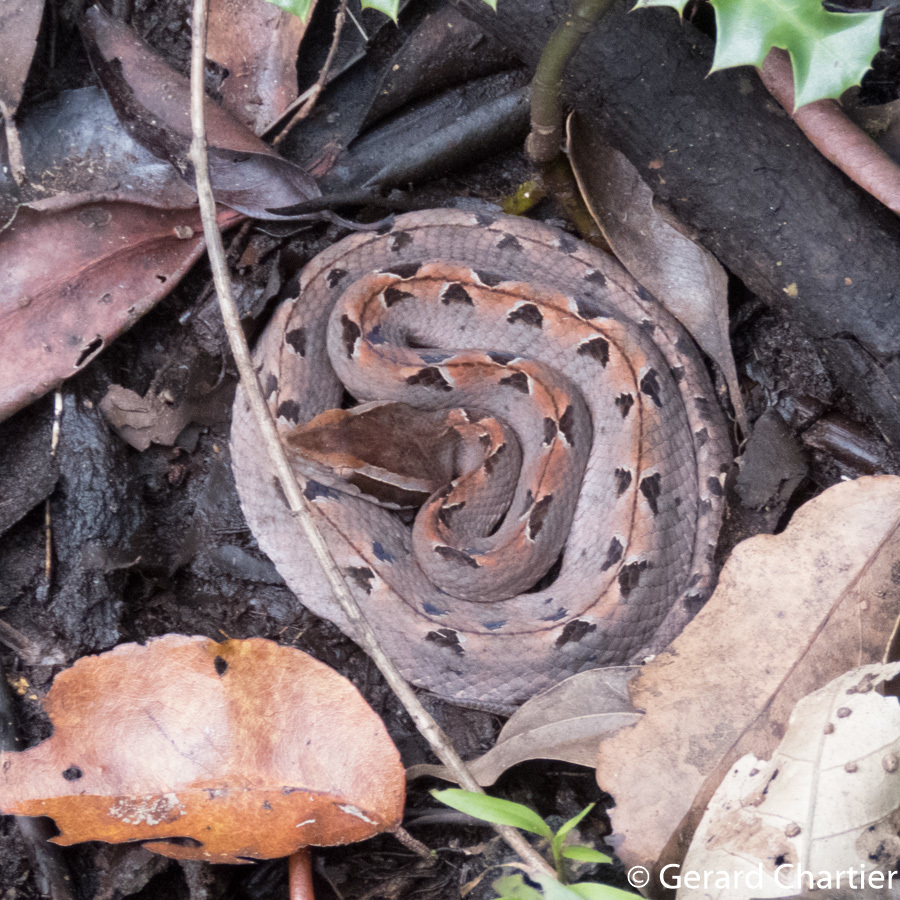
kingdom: Animalia
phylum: Chordata
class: Squamata
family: Viperidae
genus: Calloselasma
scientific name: Calloselasma rhodostoma
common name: Malayan pit viper
